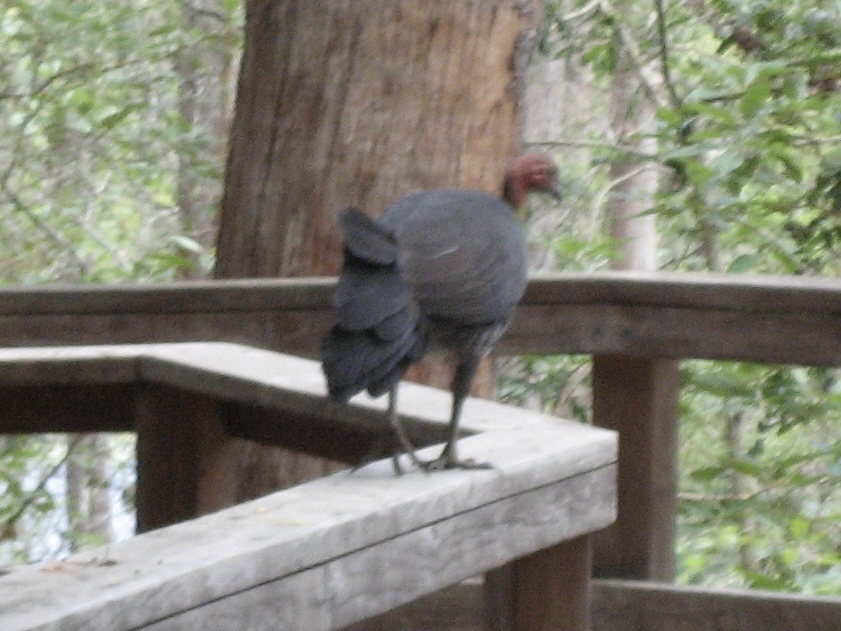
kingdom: Animalia
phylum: Chordata
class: Aves
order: Galliformes
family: Megapodiidae
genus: Alectura
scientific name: Alectura lathami
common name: Australian brushturkey
